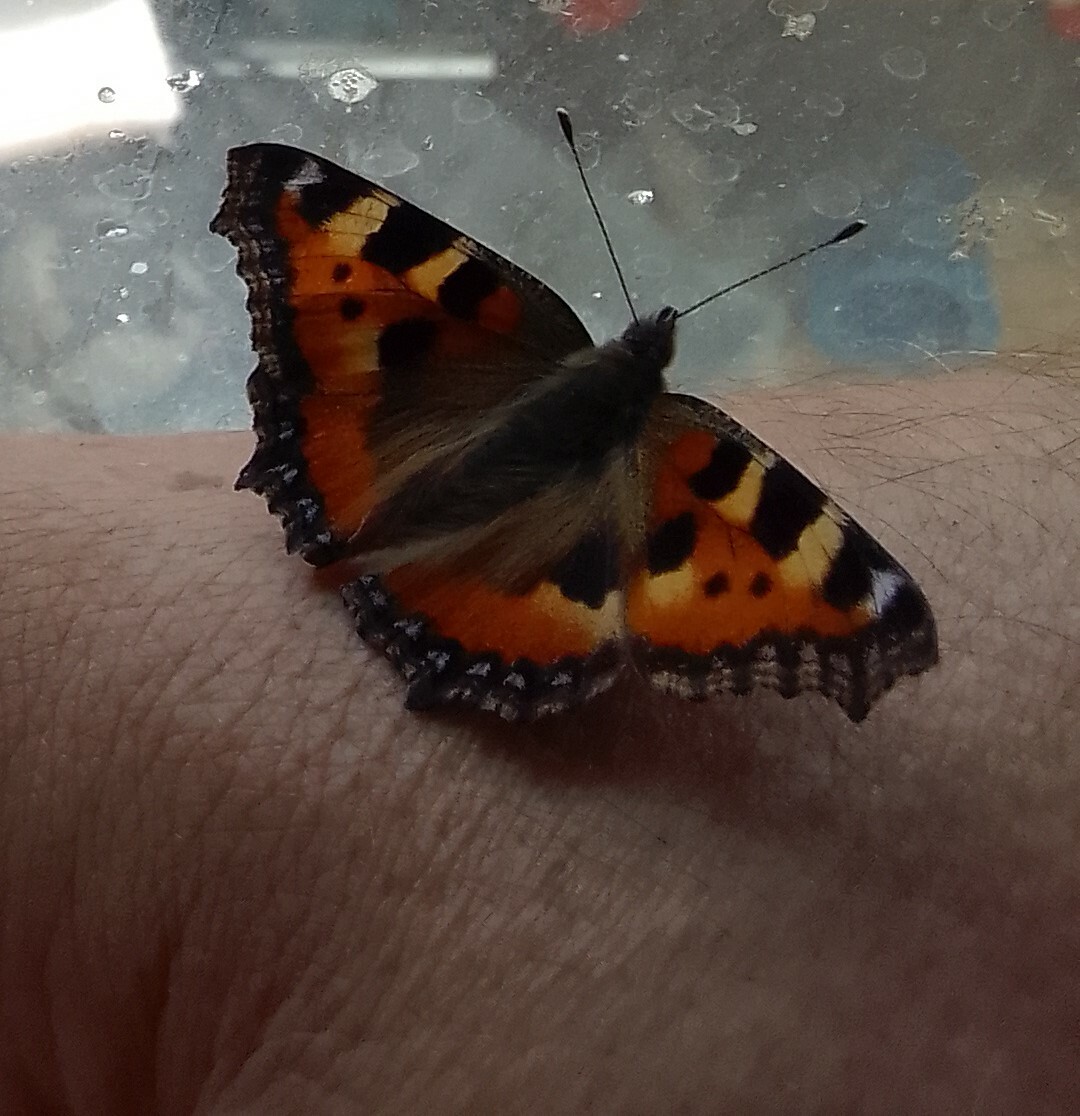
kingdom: Animalia
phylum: Arthropoda
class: Insecta
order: Lepidoptera
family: Nymphalidae
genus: Aglais
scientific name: Aglais urticae
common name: Small tortoiseshell
